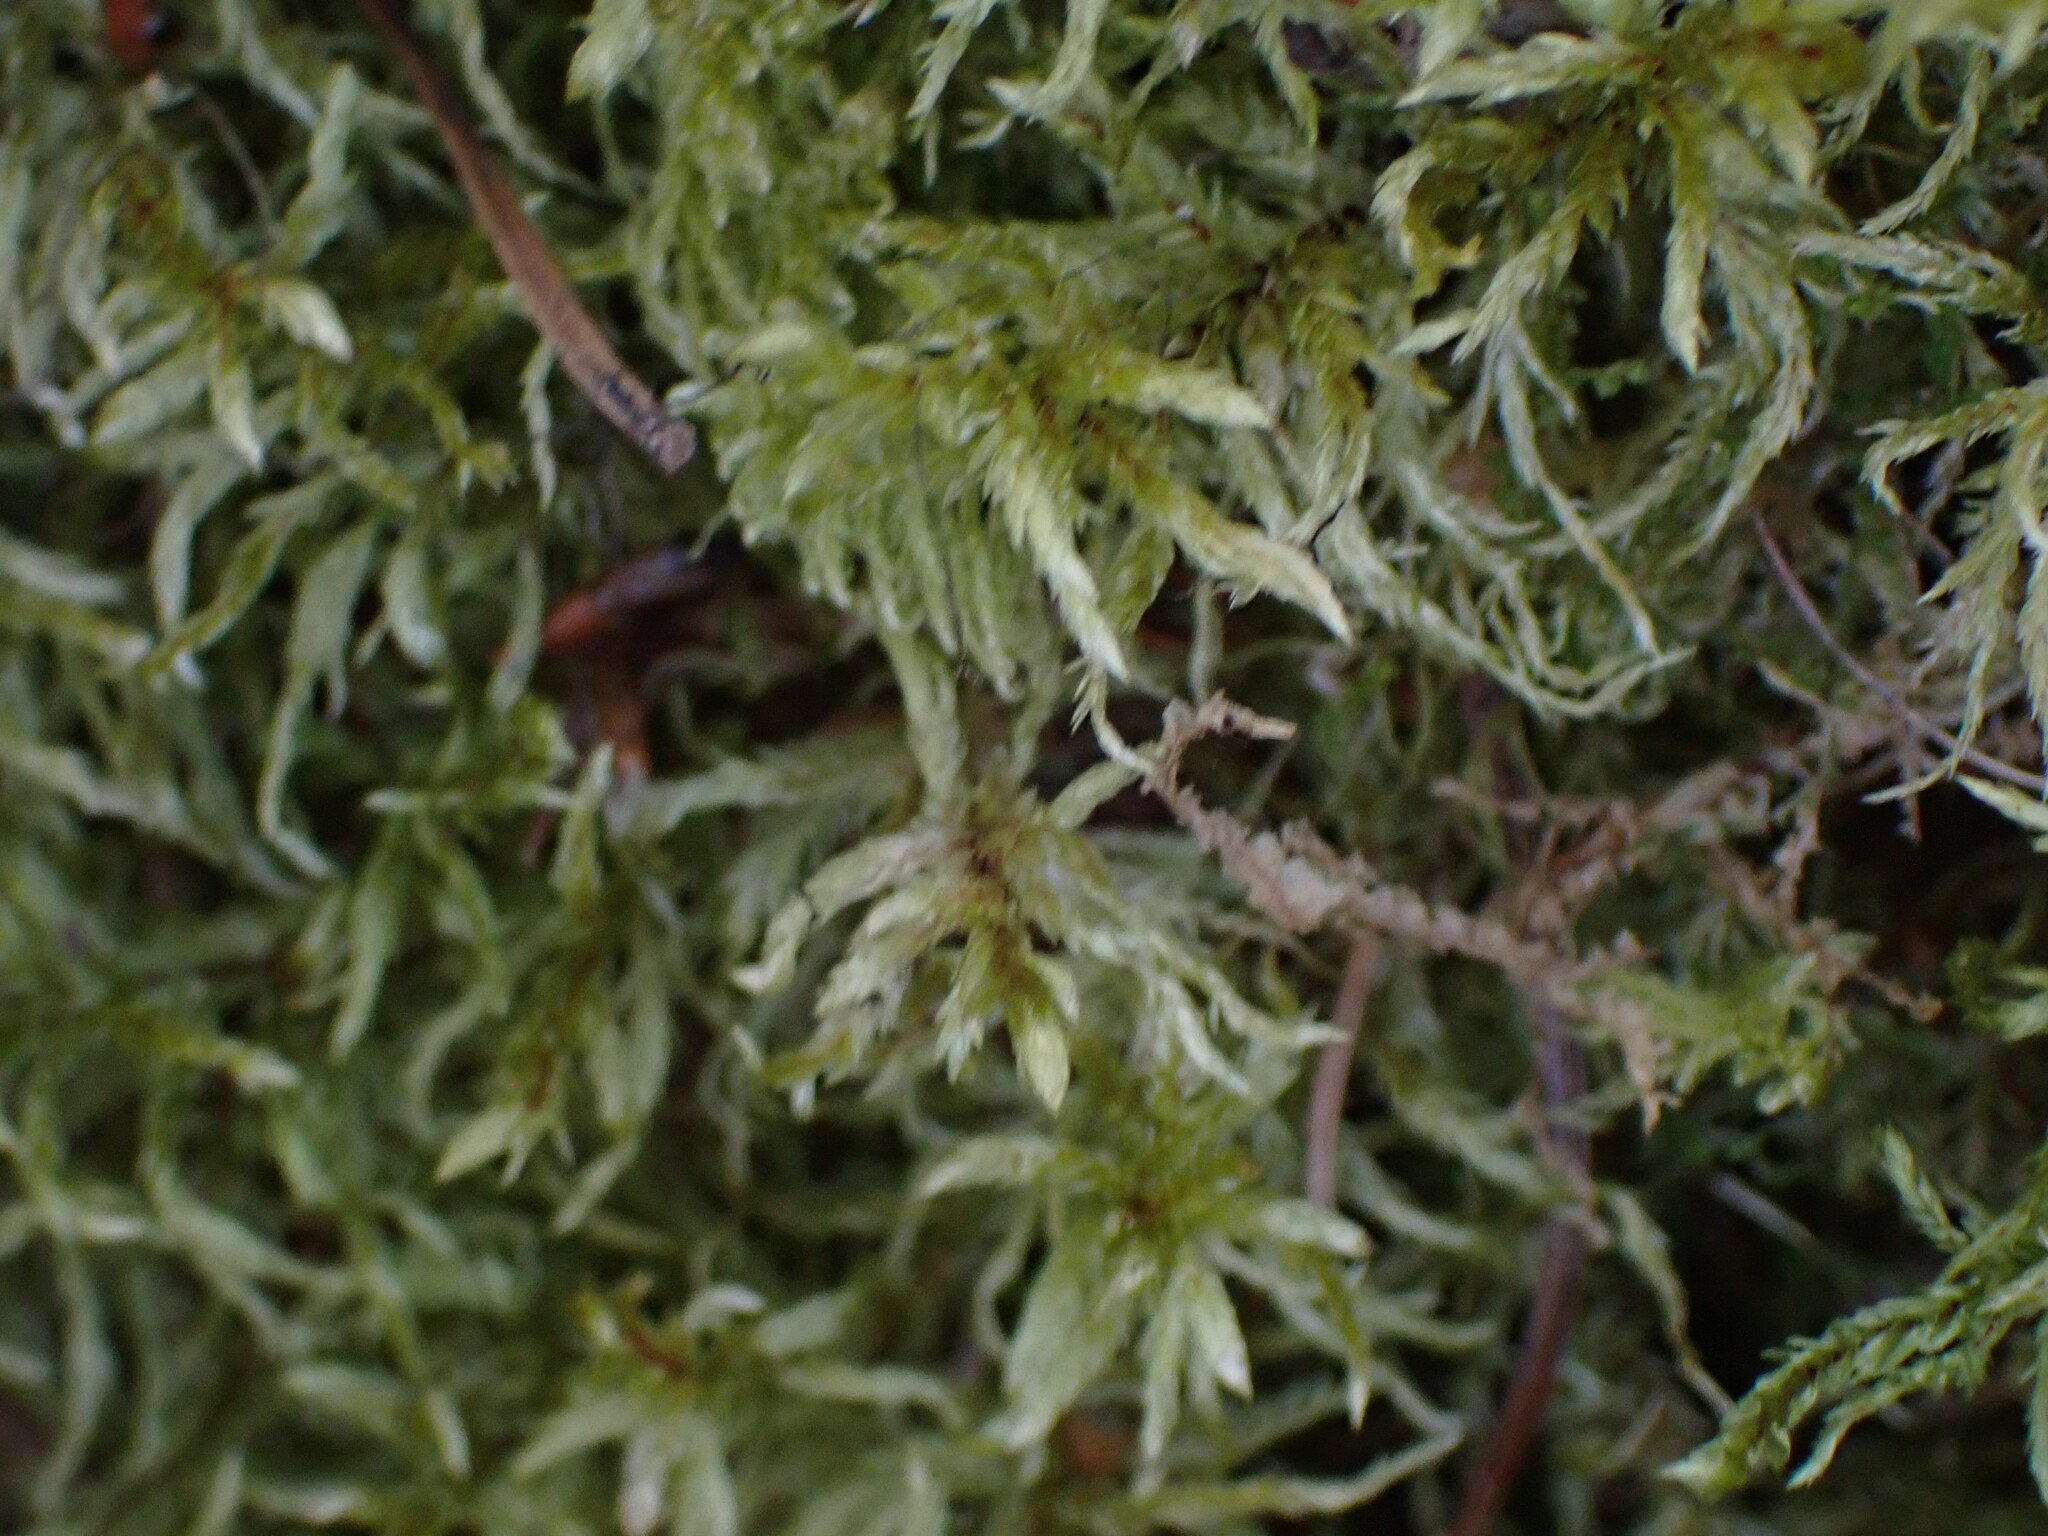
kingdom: Plantae
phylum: Bryophyta
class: Bryopsida
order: Hypnales
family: Hylocomiaceae
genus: Pleurozium
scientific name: Pleurozium schreberi
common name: Red-stemmed feather moss
